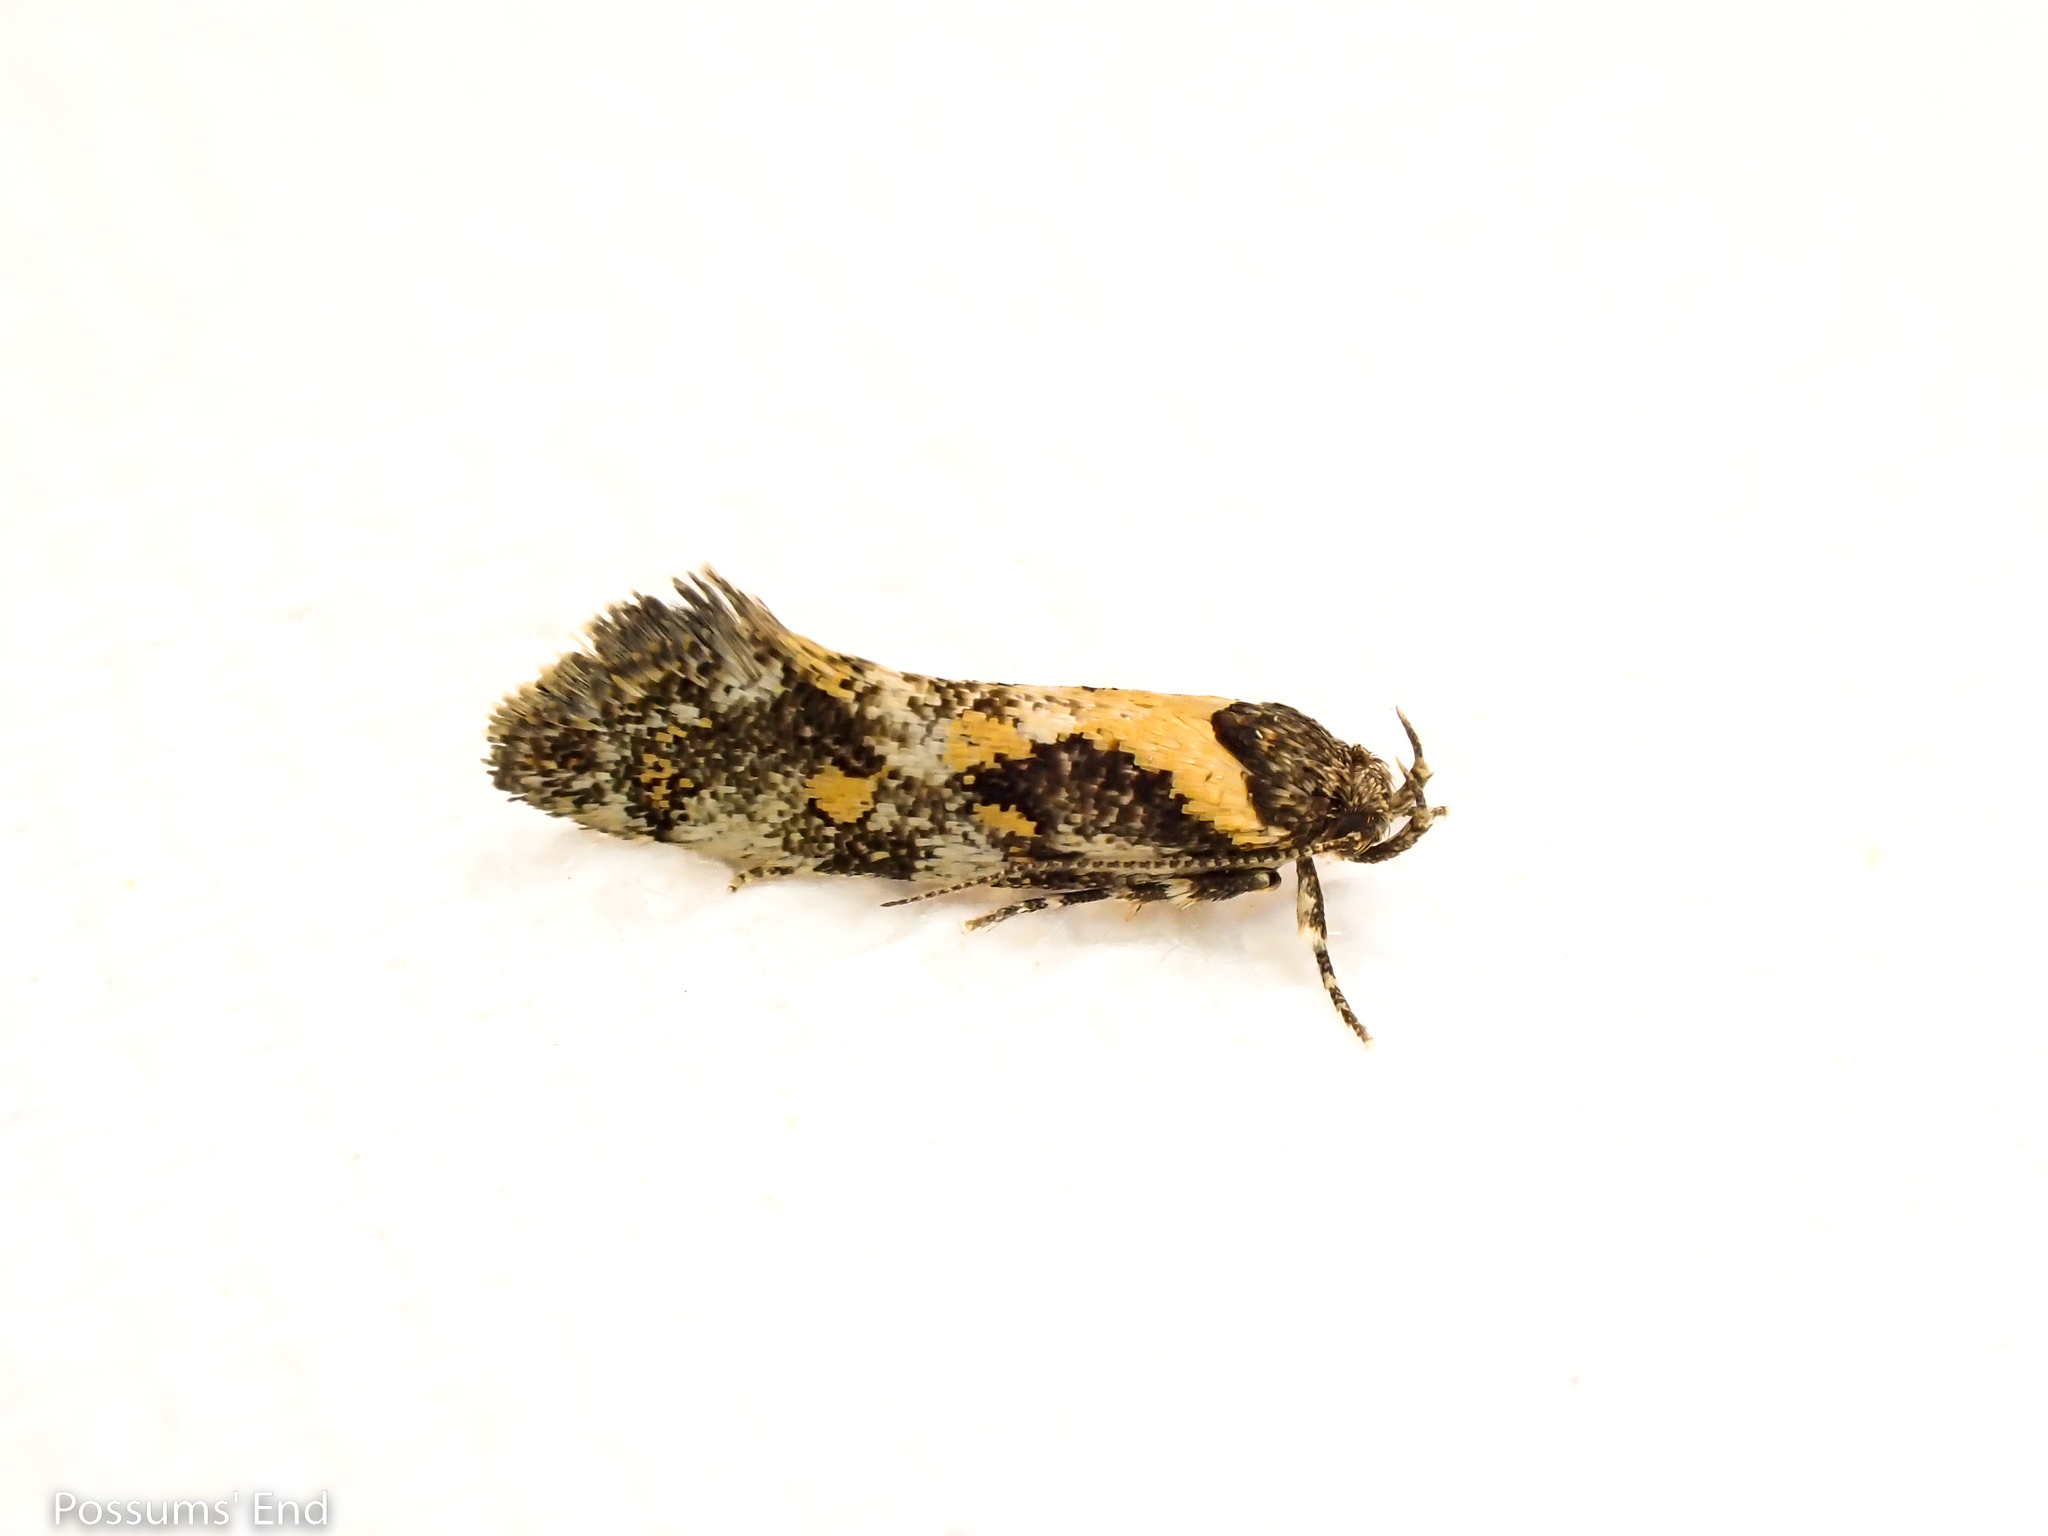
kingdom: Animalia
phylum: Arthropoda
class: Insecta
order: Lepidoptera
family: Oecophoridae
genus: Tingena
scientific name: Tingena lassa
